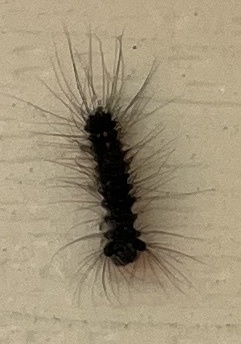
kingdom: Animalia
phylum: Arthropoda
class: Insecta
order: Lepidoptera
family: Erebidae
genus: Lymantria
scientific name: Lymantria dispar
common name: Gypsy moth
